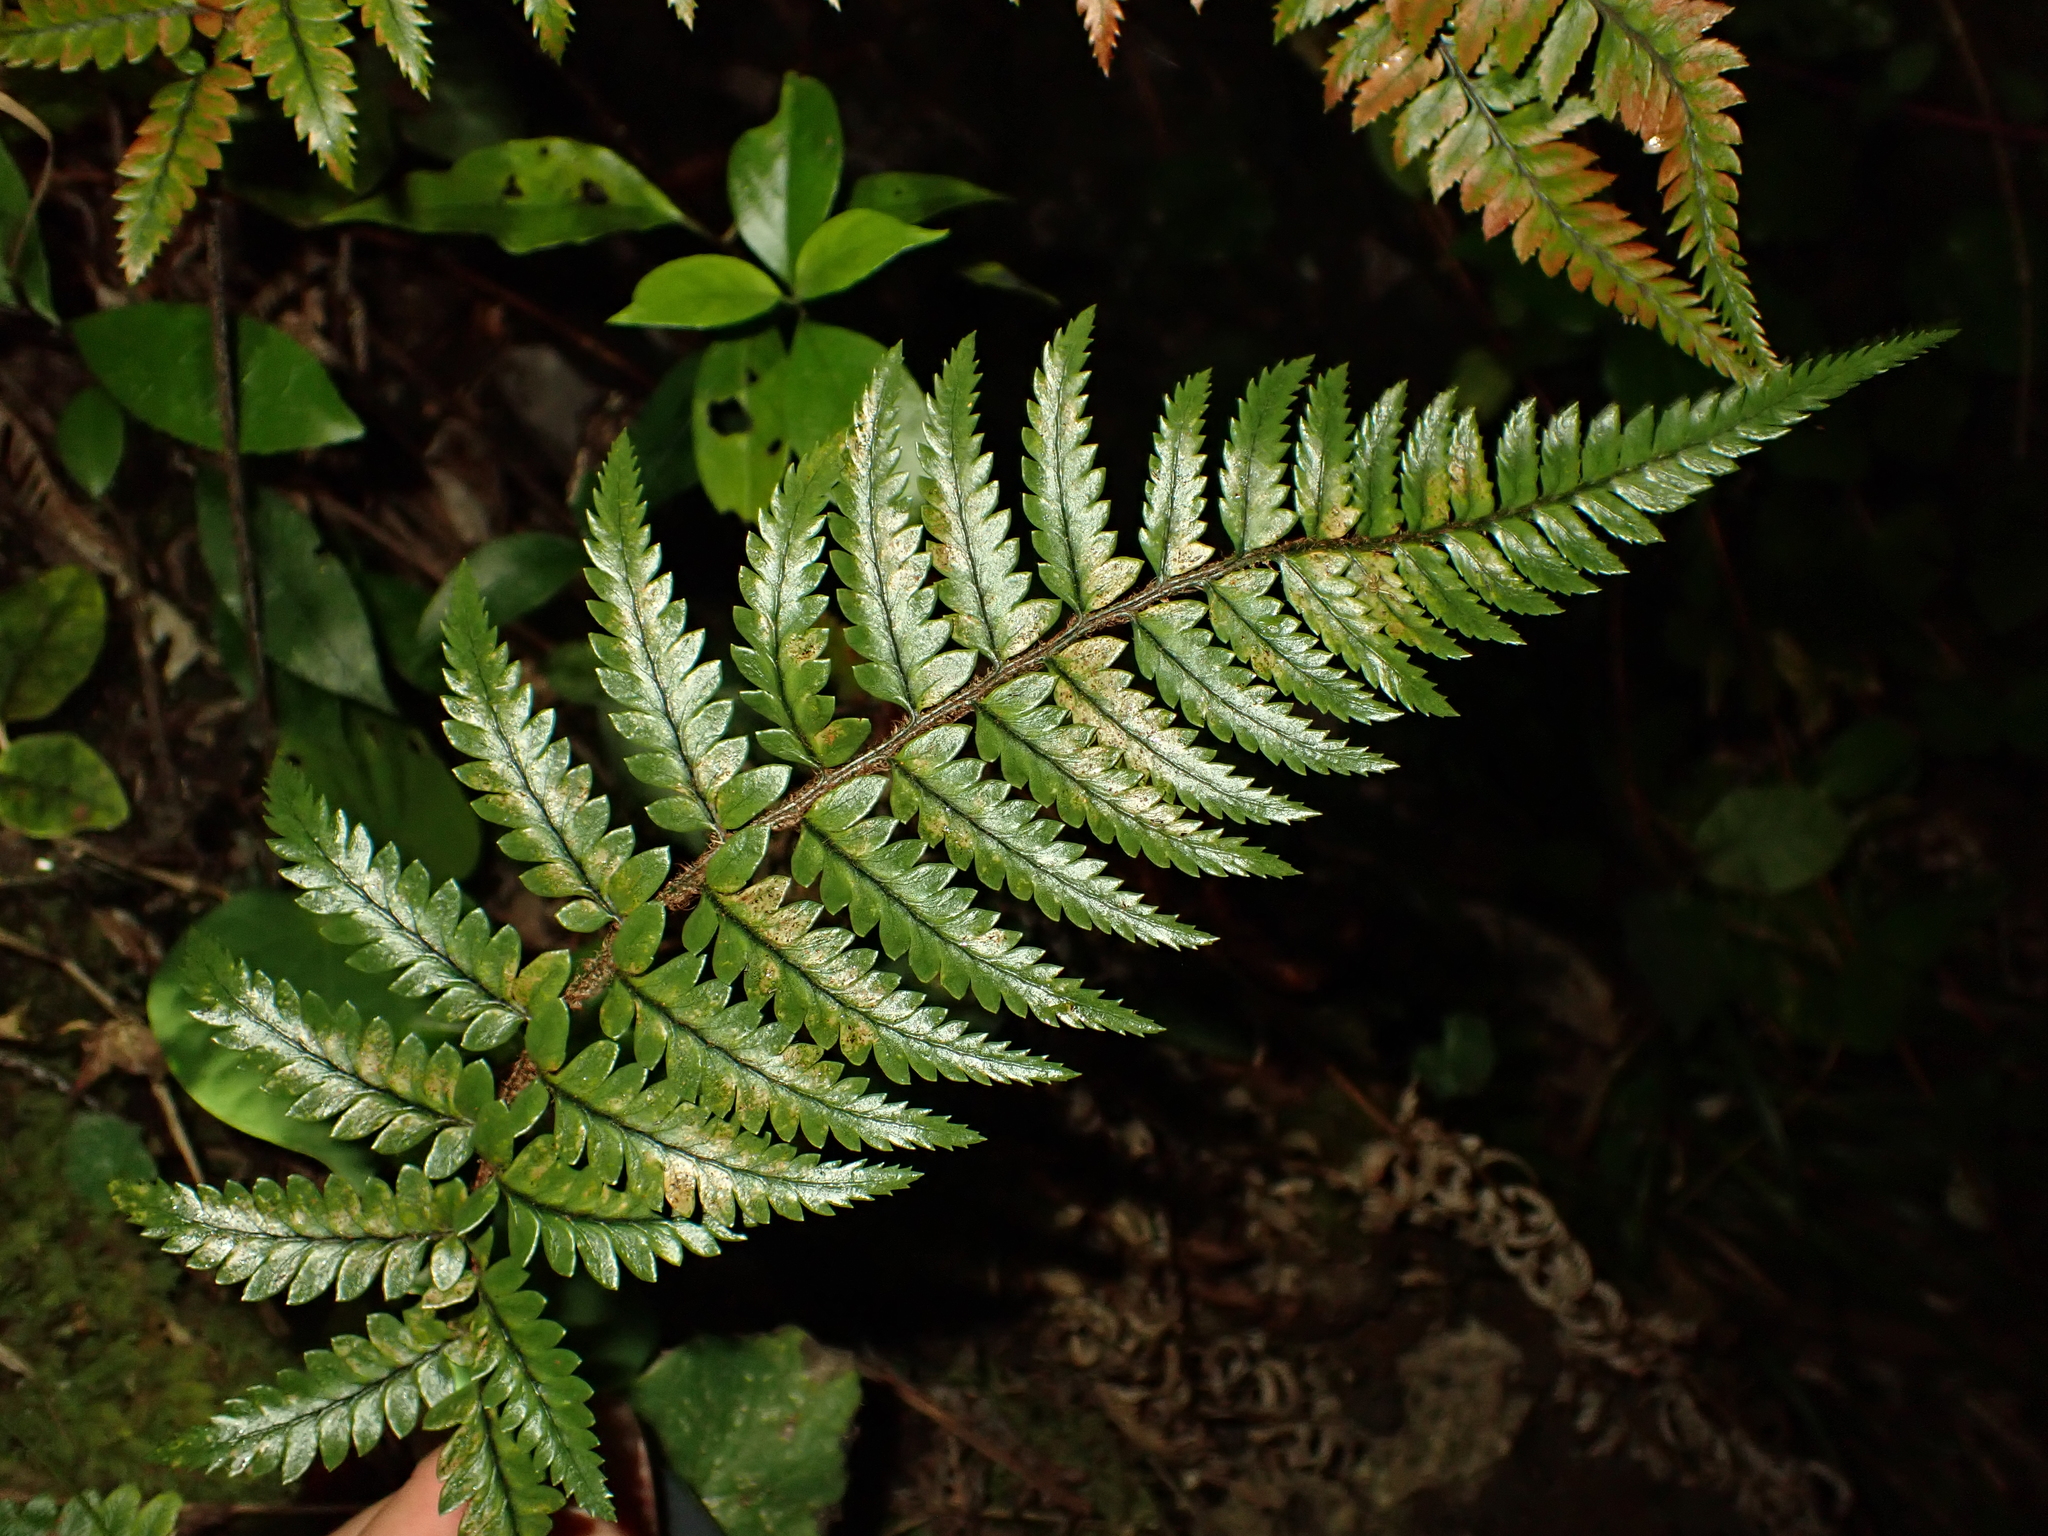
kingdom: Plantae
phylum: Tracheophyta
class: Polypodiopsida
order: Polypodiales
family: Dryopteridaceae
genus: Polystichum
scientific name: Polystichum wawranum
